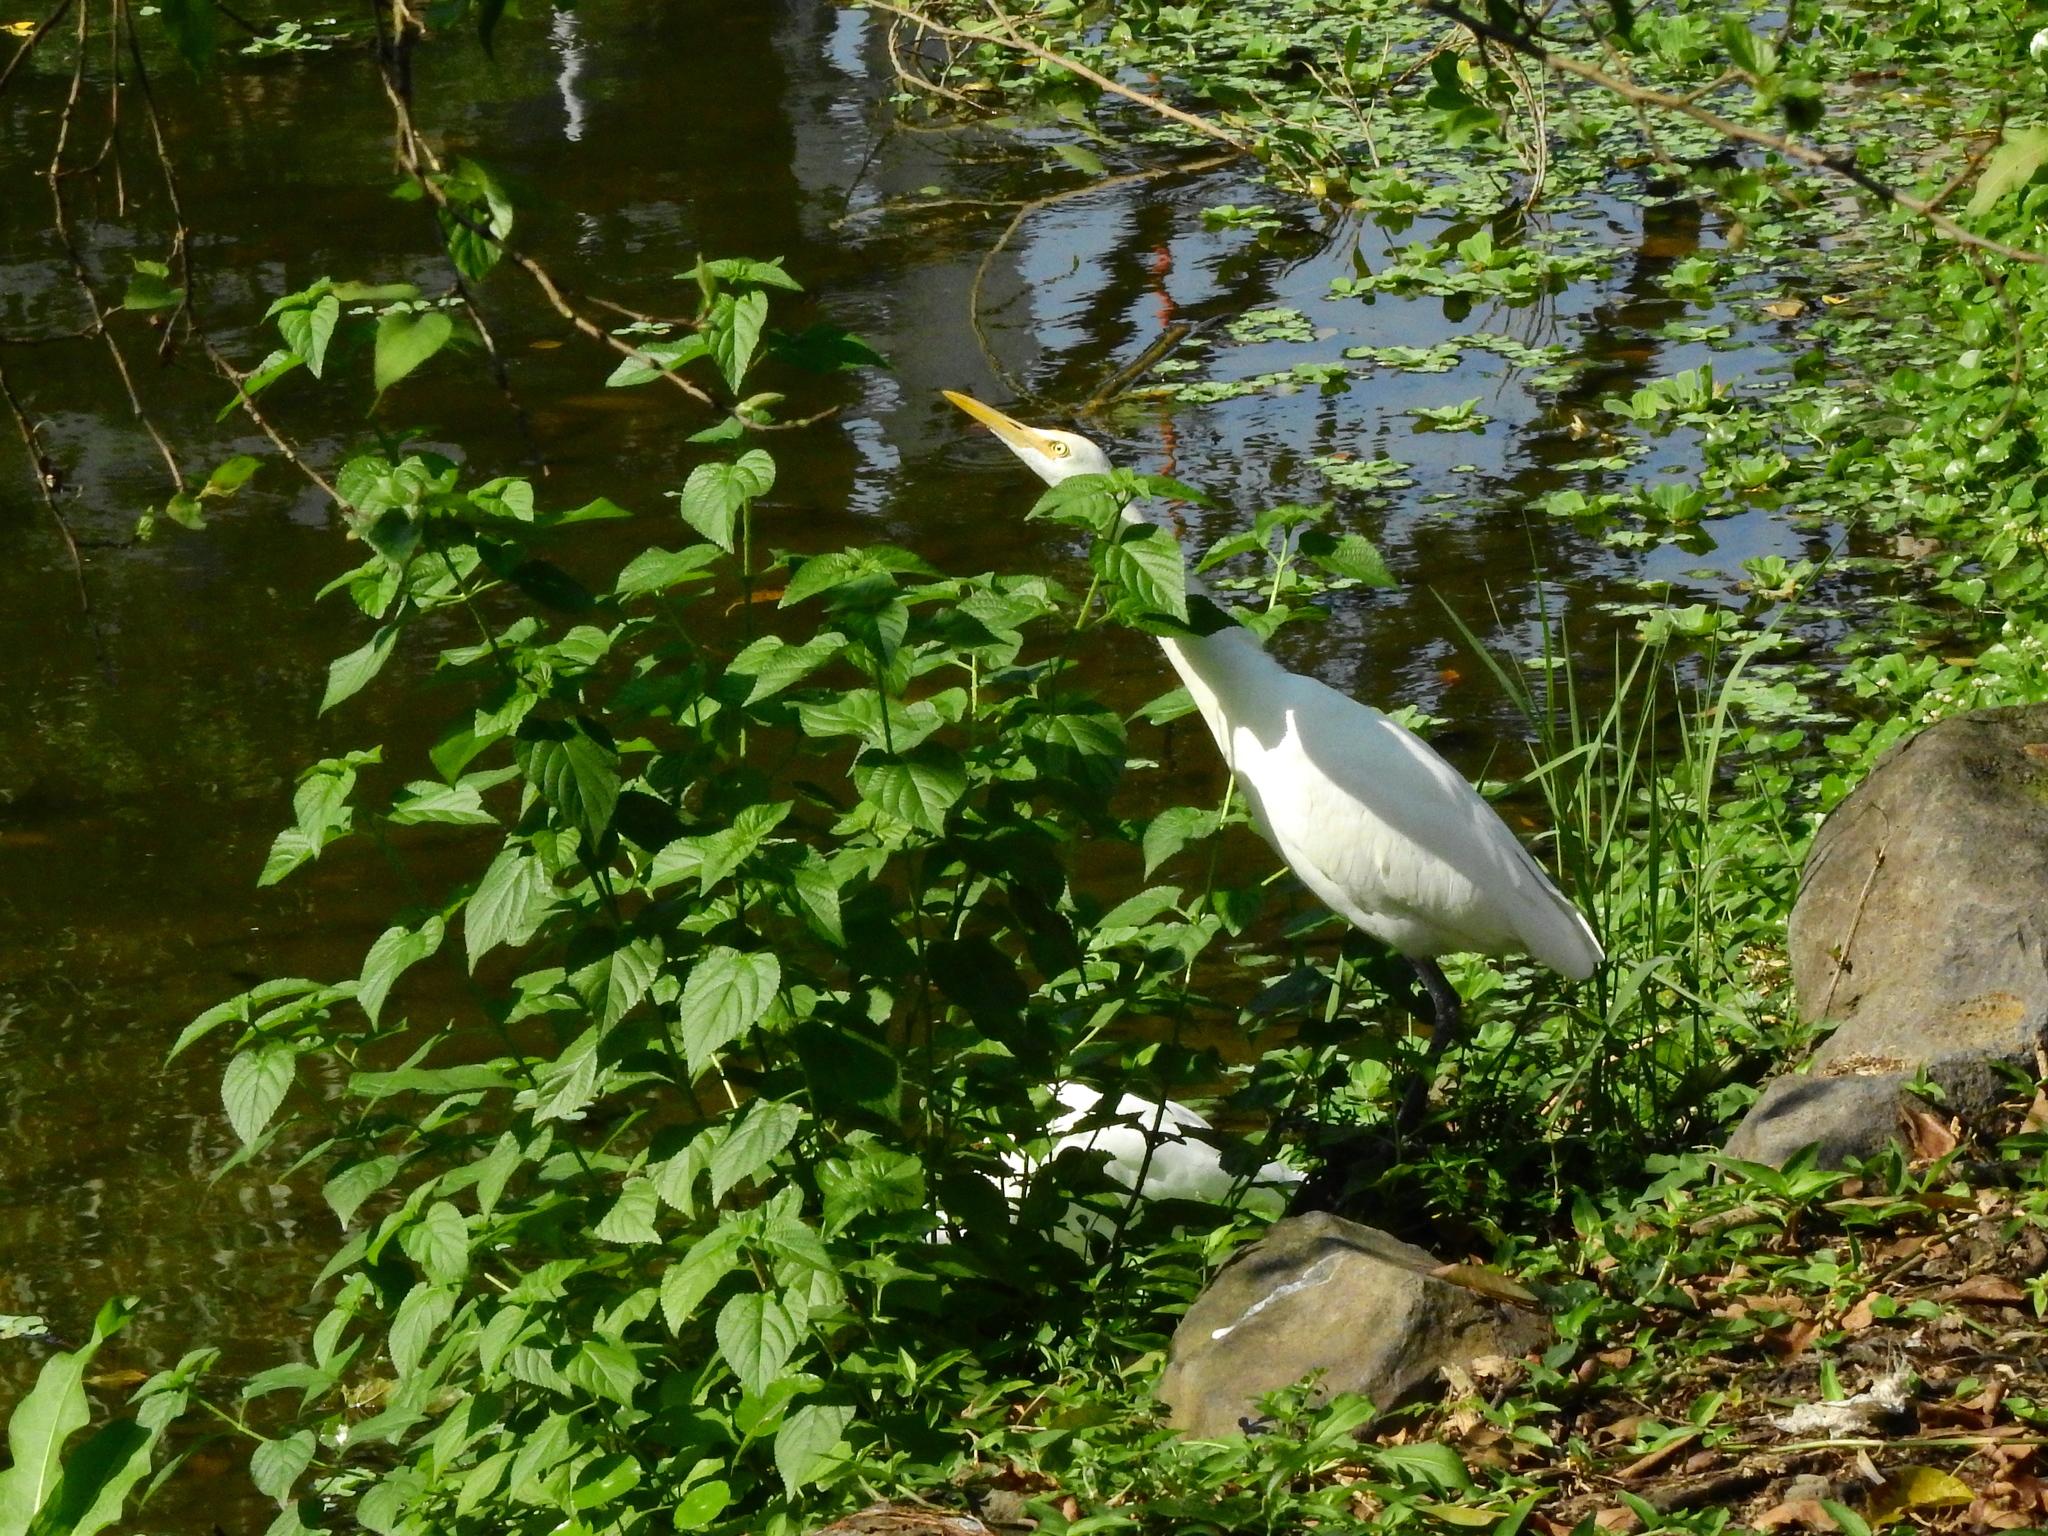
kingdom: Animalia
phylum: Chordata
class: Aves
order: Pelecaniformes
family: Ardeidae
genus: Bubulcus
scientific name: Bubulcus coromandus
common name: Eastern cattle egret
